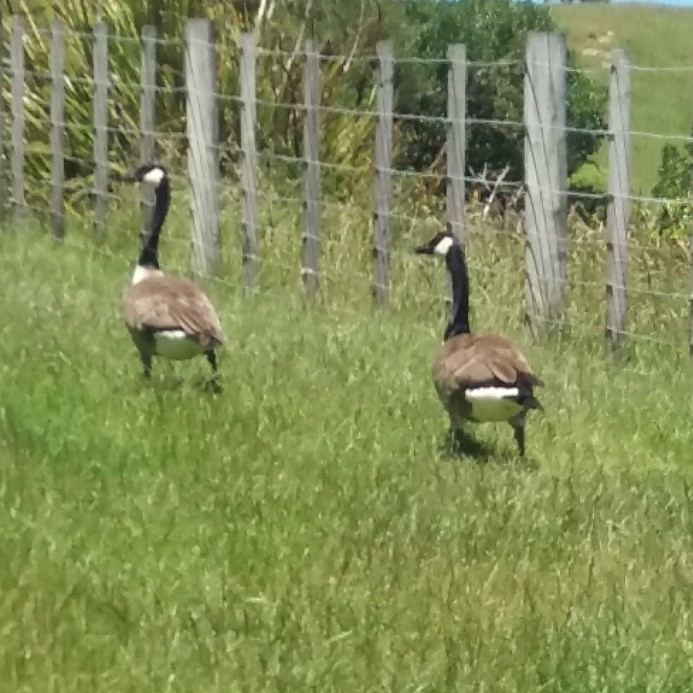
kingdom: Animalia
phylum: Chordata
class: Aves
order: Anseriformes
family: Anatidae
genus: Branta
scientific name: Branta canadensis
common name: Canada goose
